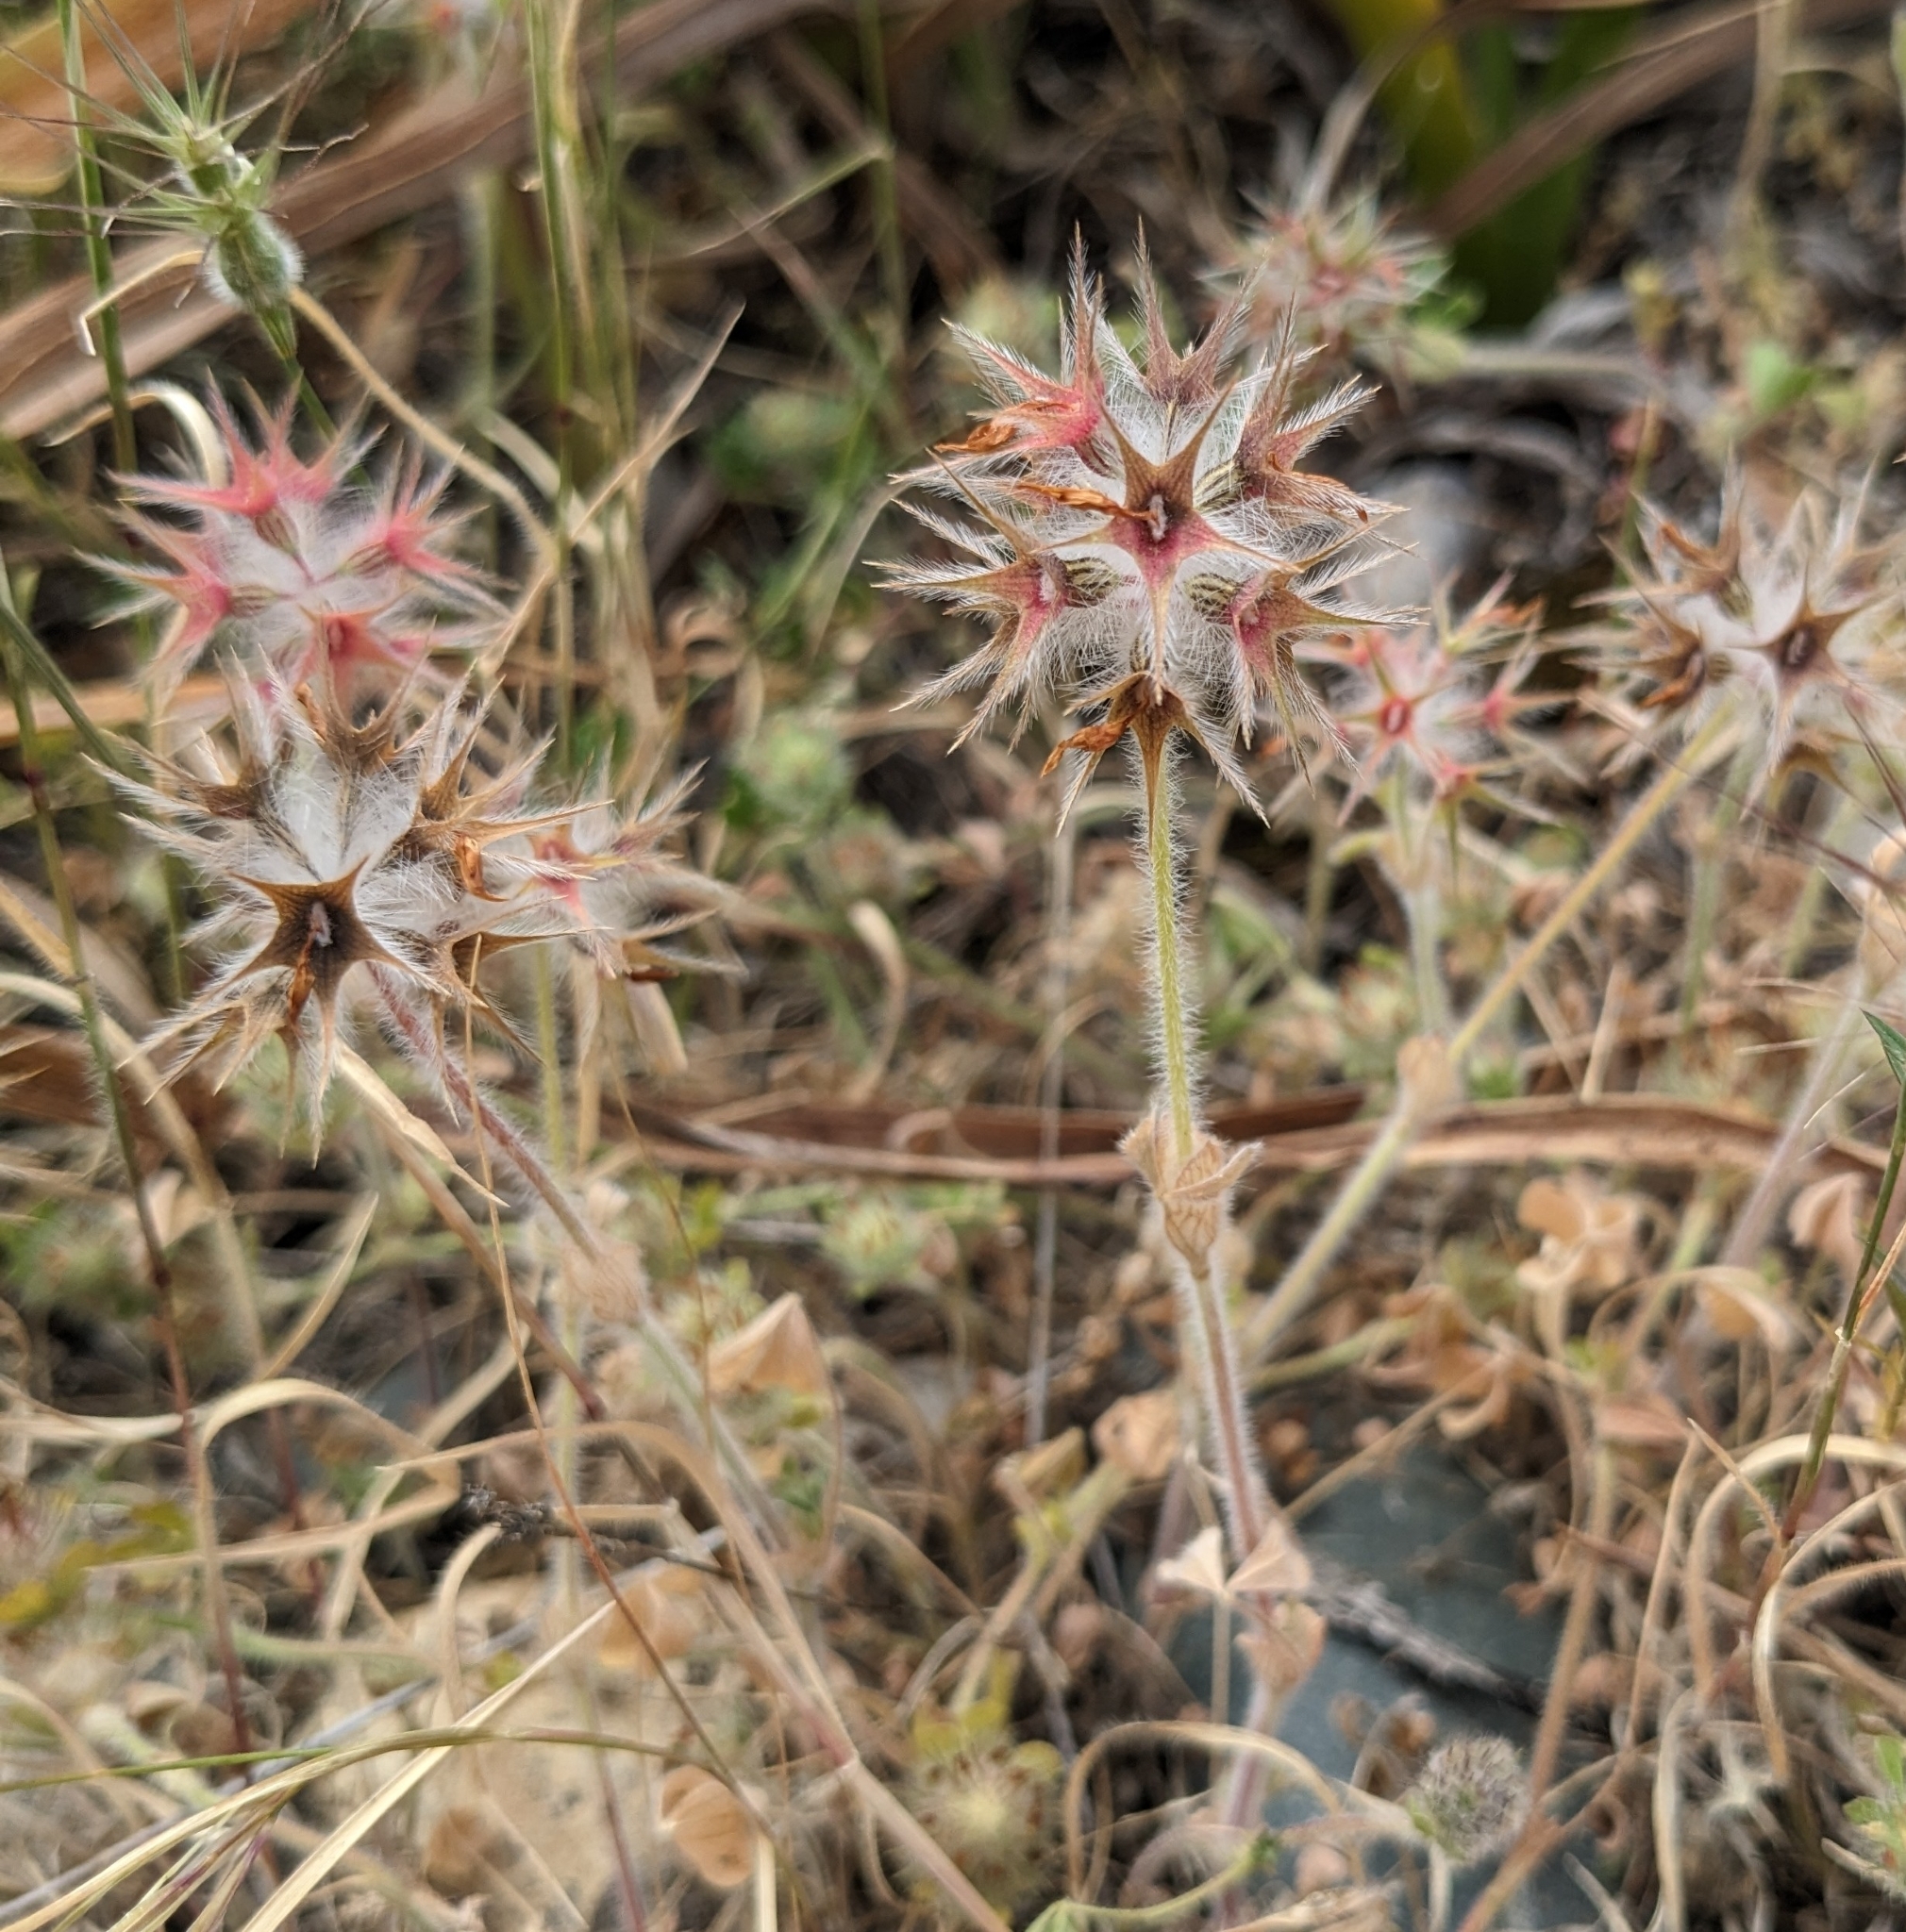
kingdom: Plantae
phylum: Tracheophyta
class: Magnoliopsida
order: Fabales
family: Fabaceae
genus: Trifolium
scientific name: Trifolium stellatum
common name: Starry clover
